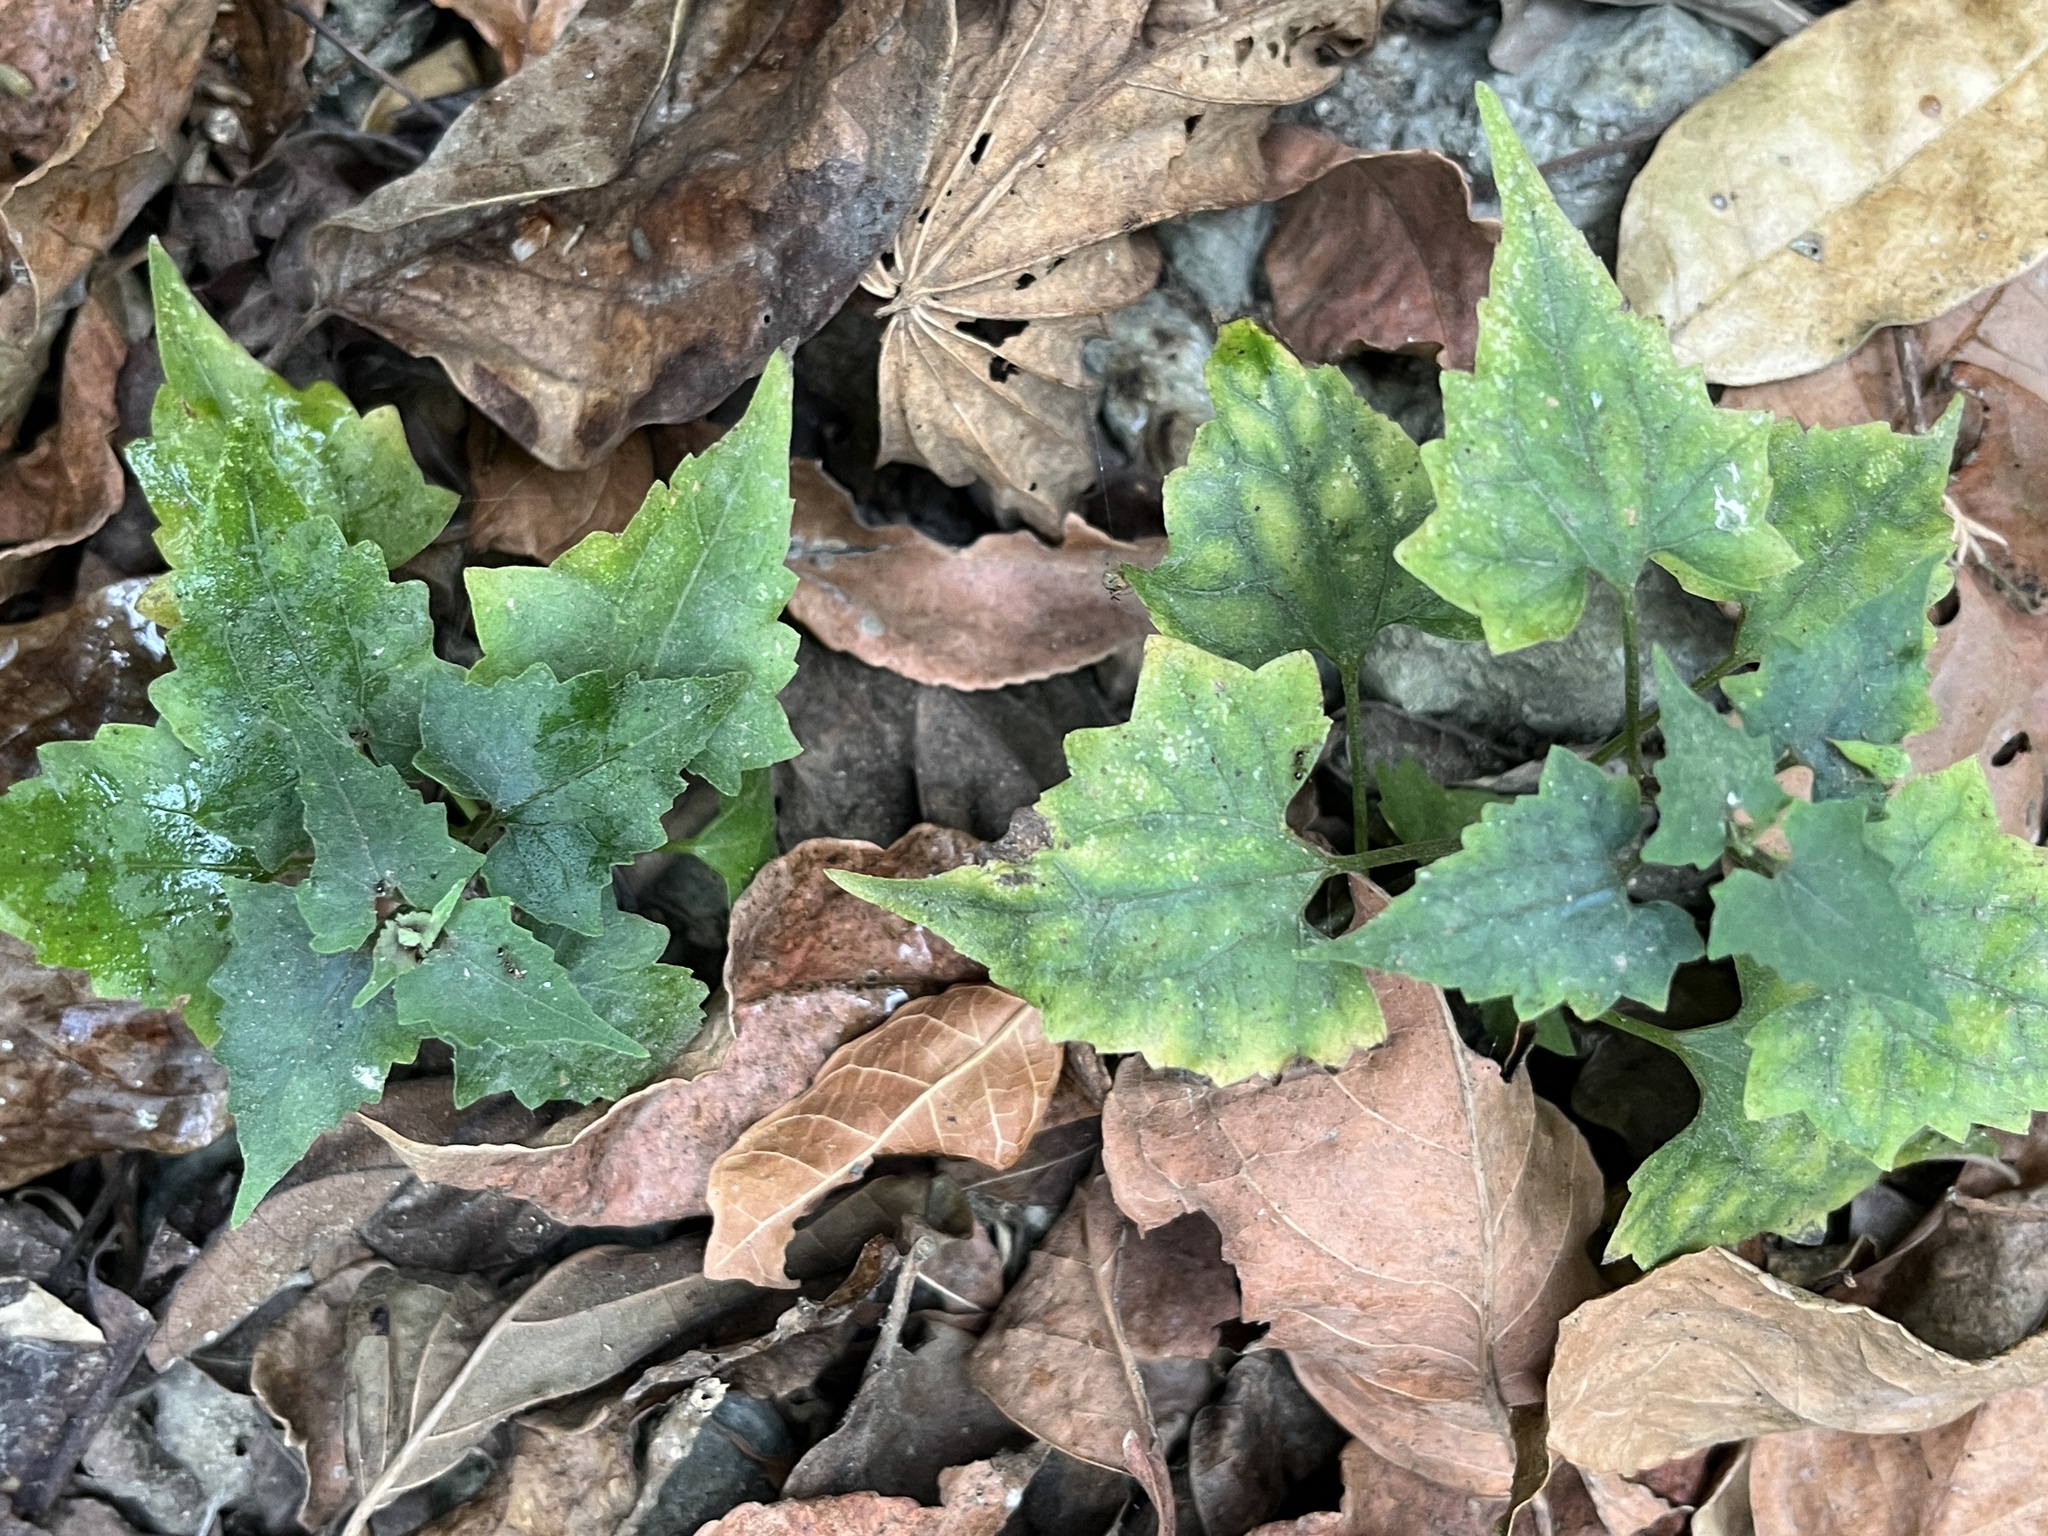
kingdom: Plantae
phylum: Tracheophyta
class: Magnoliopsida
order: Asterales
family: Asteraceae
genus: Mikania
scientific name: Mikania micrantha
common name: Mile-a-minute
